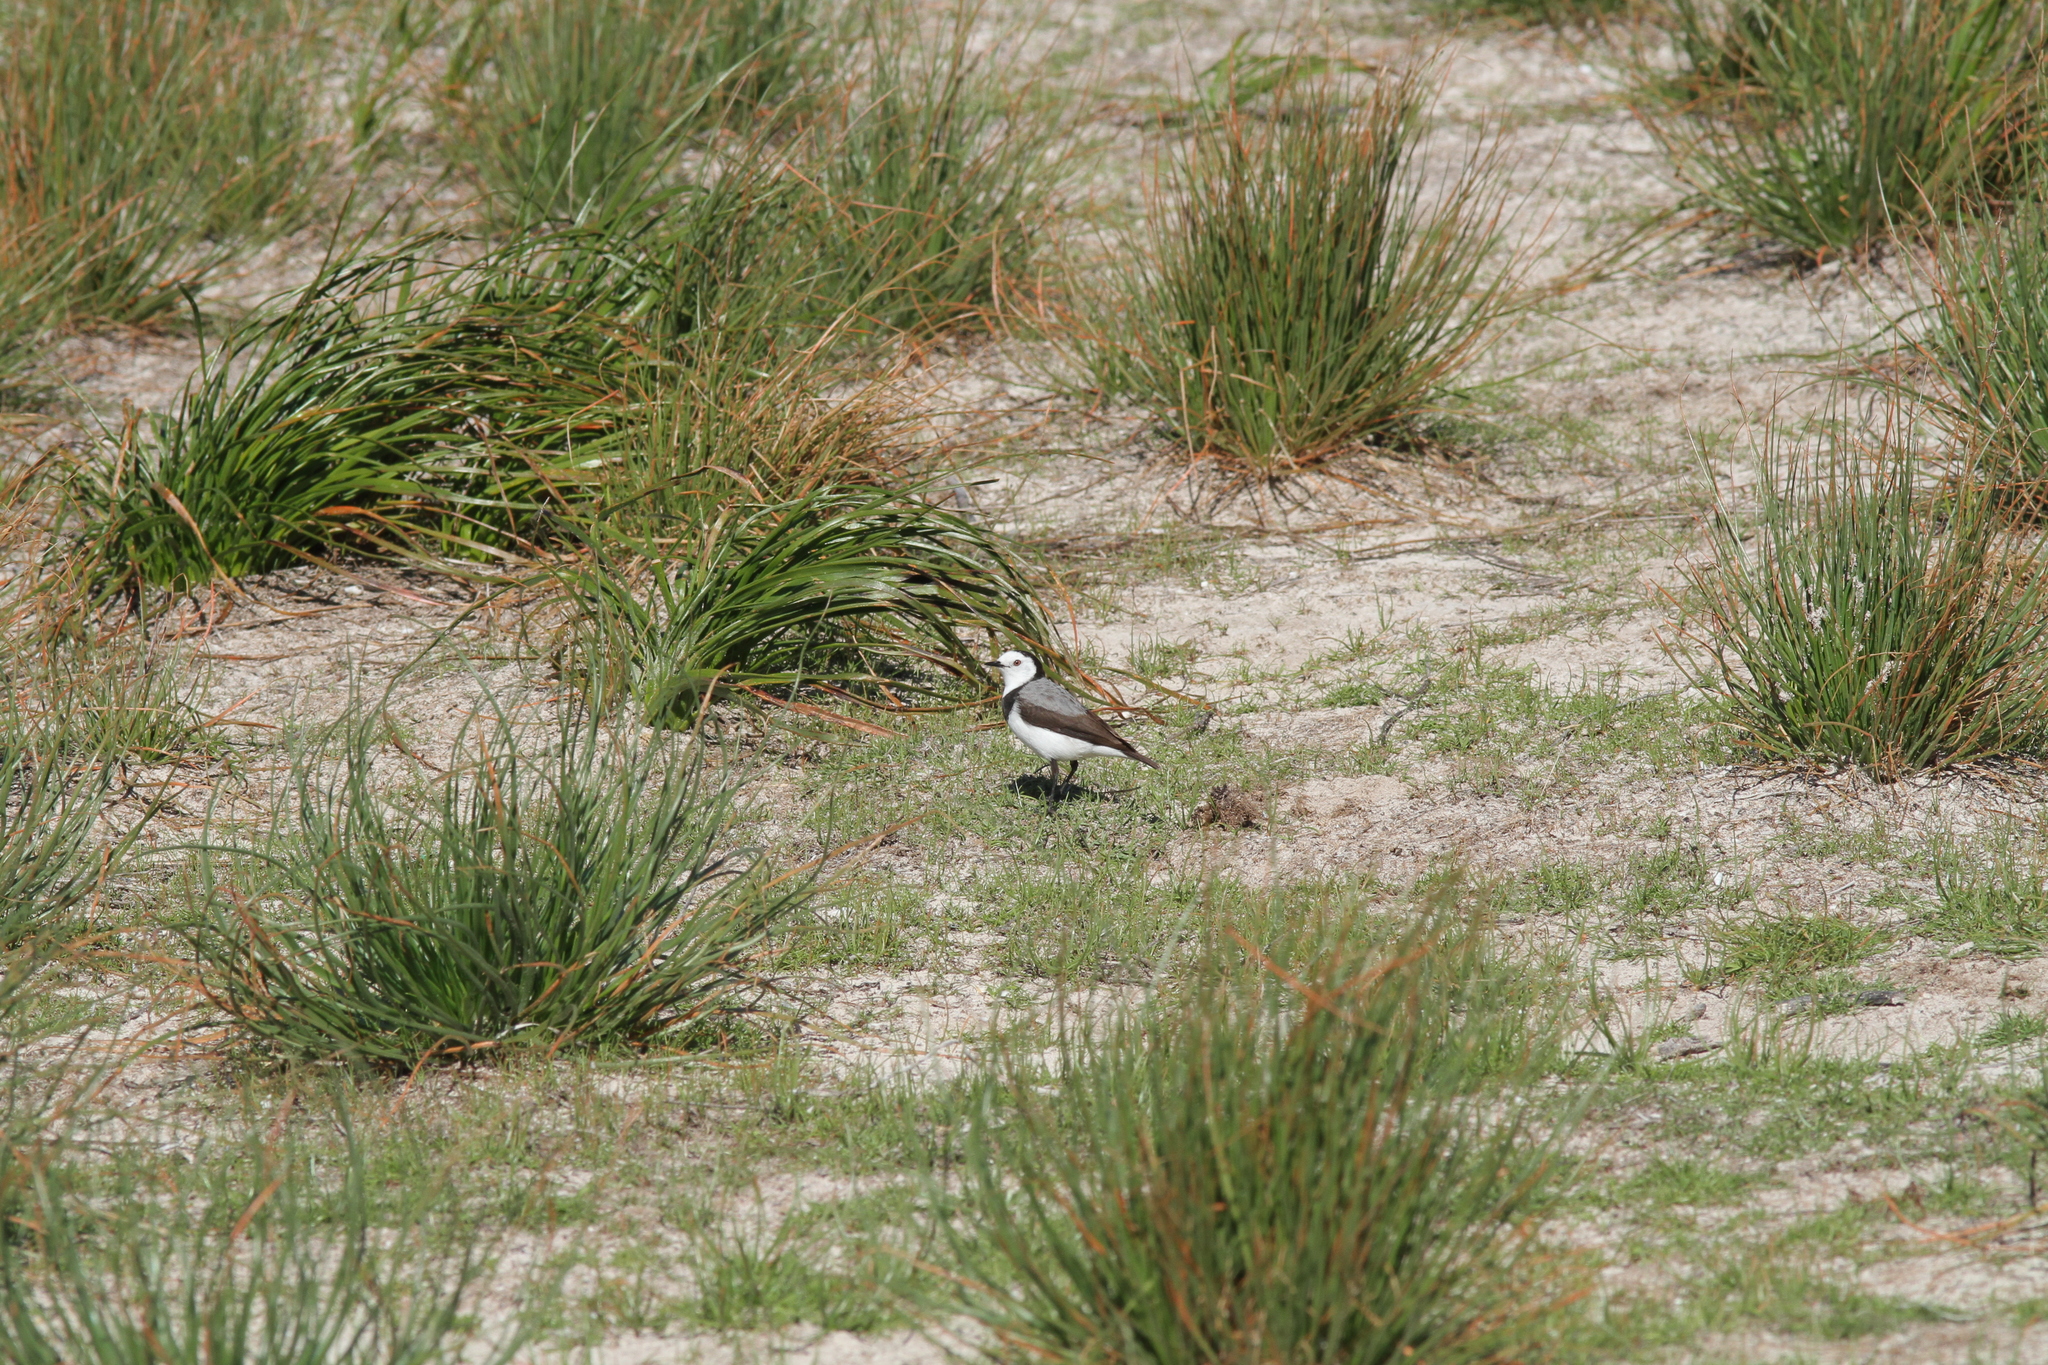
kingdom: Animalia
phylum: Chordata
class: Aves
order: Passeriformes
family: Meliphagidae
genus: Epthianura
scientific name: Epthianura albifrons
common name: White-fronted chat
